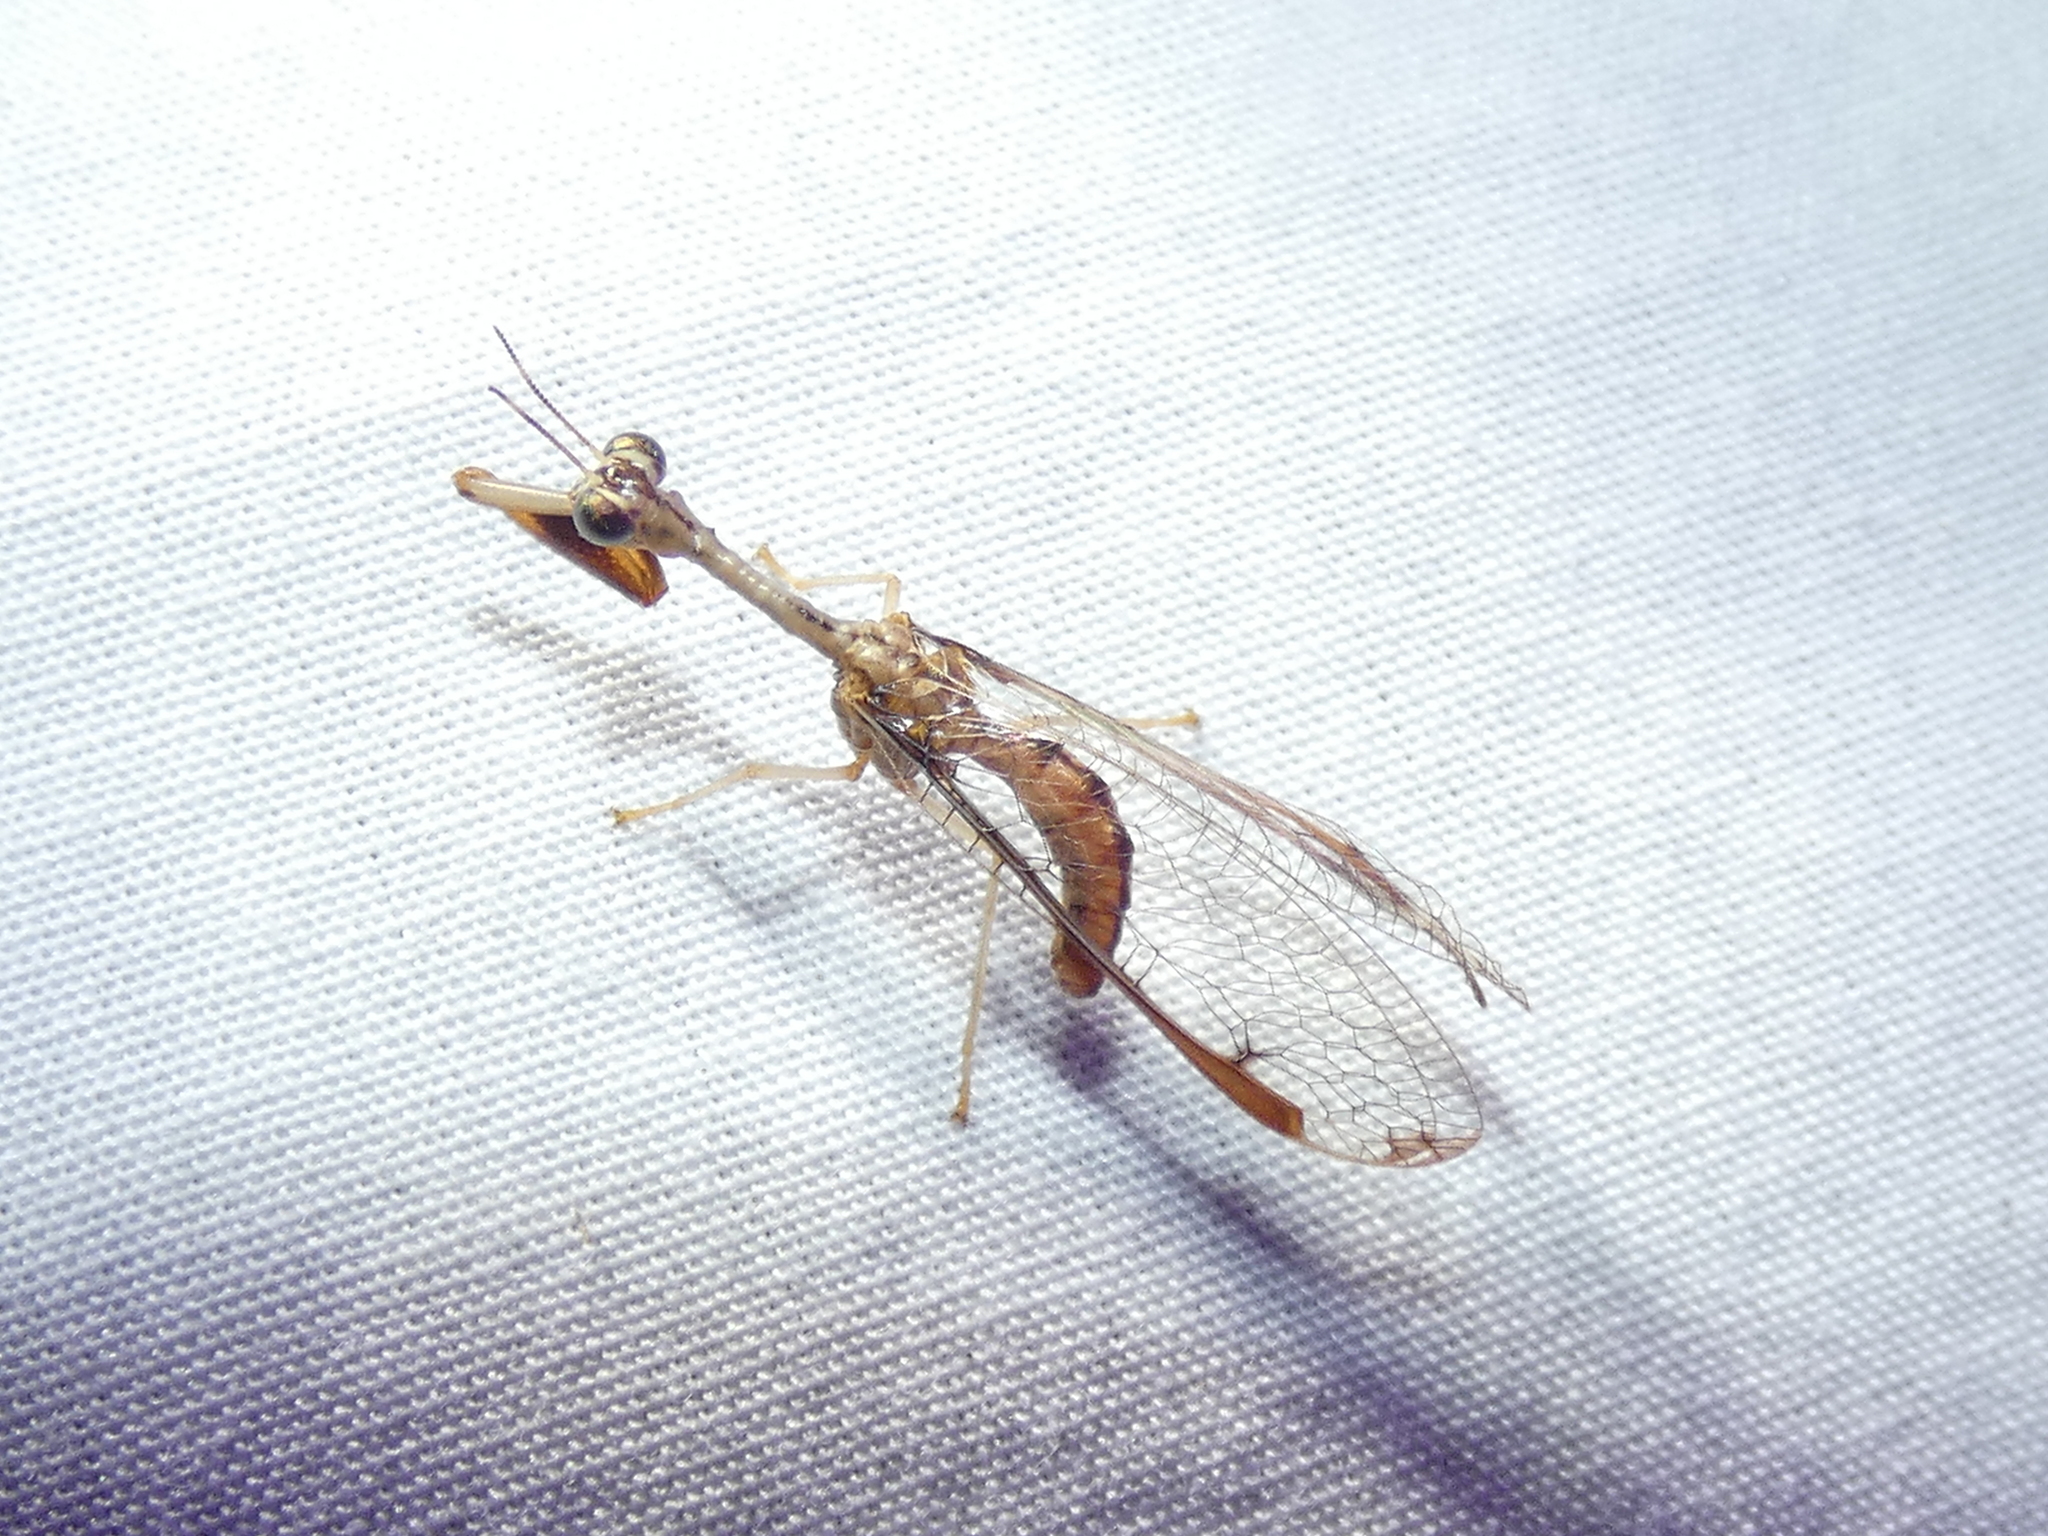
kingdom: Animalia
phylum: Arthropoda
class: Insecta
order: Neuroptera
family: Mantispidae
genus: Dicromantispa
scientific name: Dicromantispa interrupta
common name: Four-spotted mantidfly
